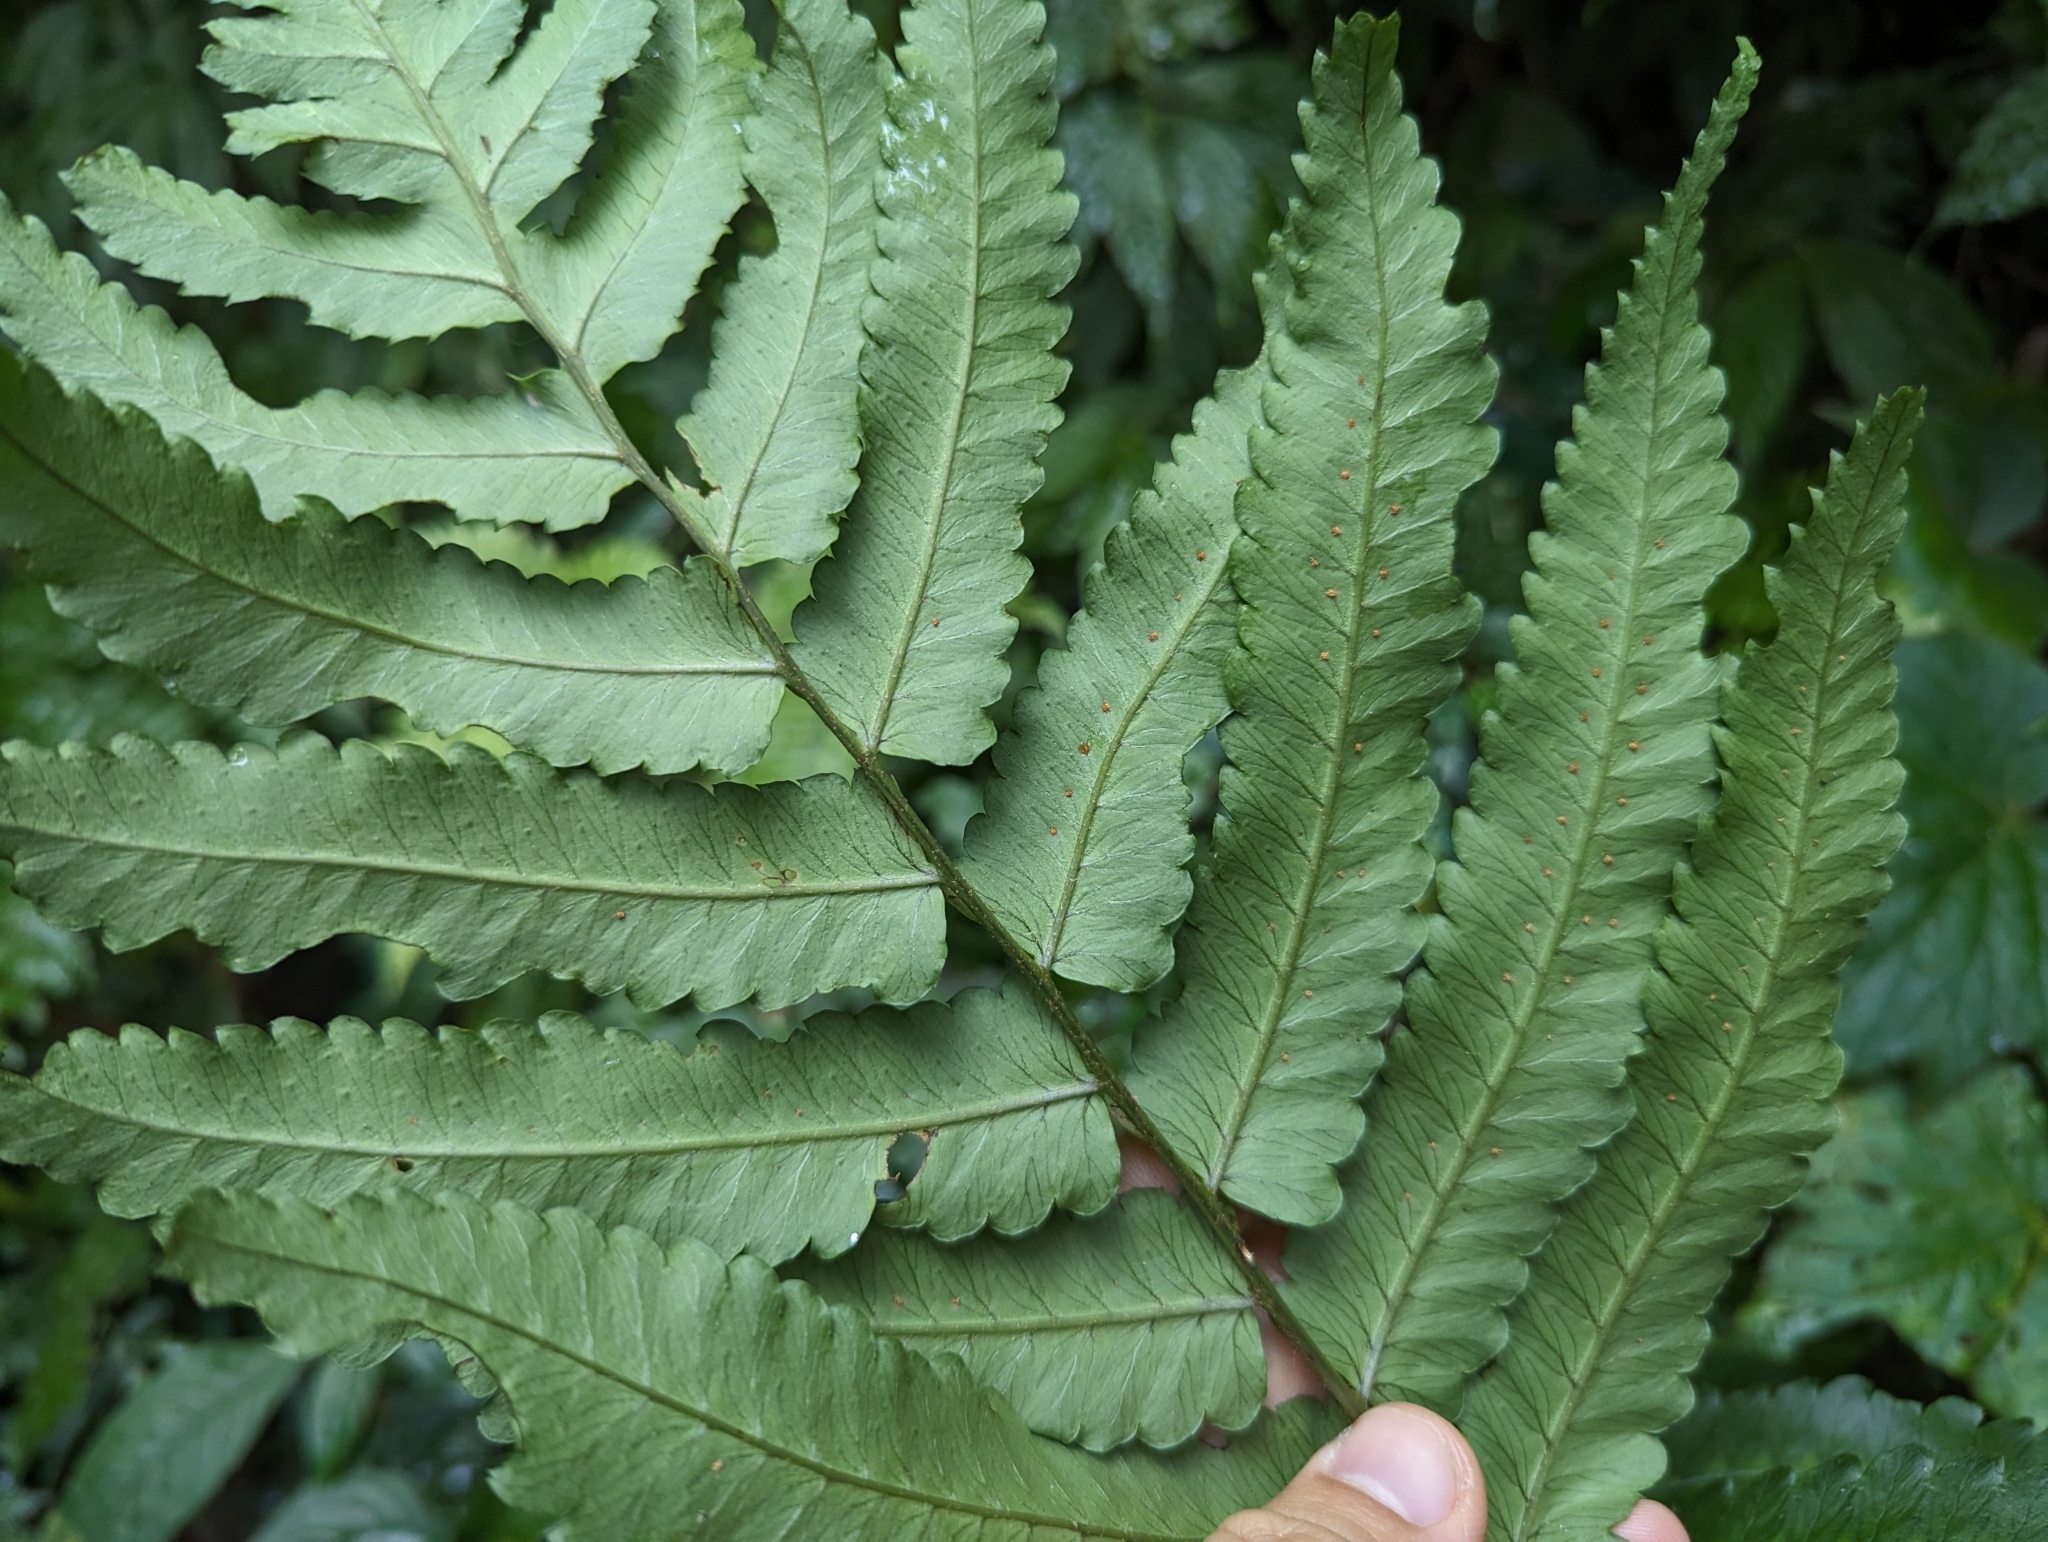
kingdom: Plantae
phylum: Tracheophyta
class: Polypodiopsida
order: Polypodiales
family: Dryopteridaceae
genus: Dryopteris
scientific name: Dryopteris scottii
